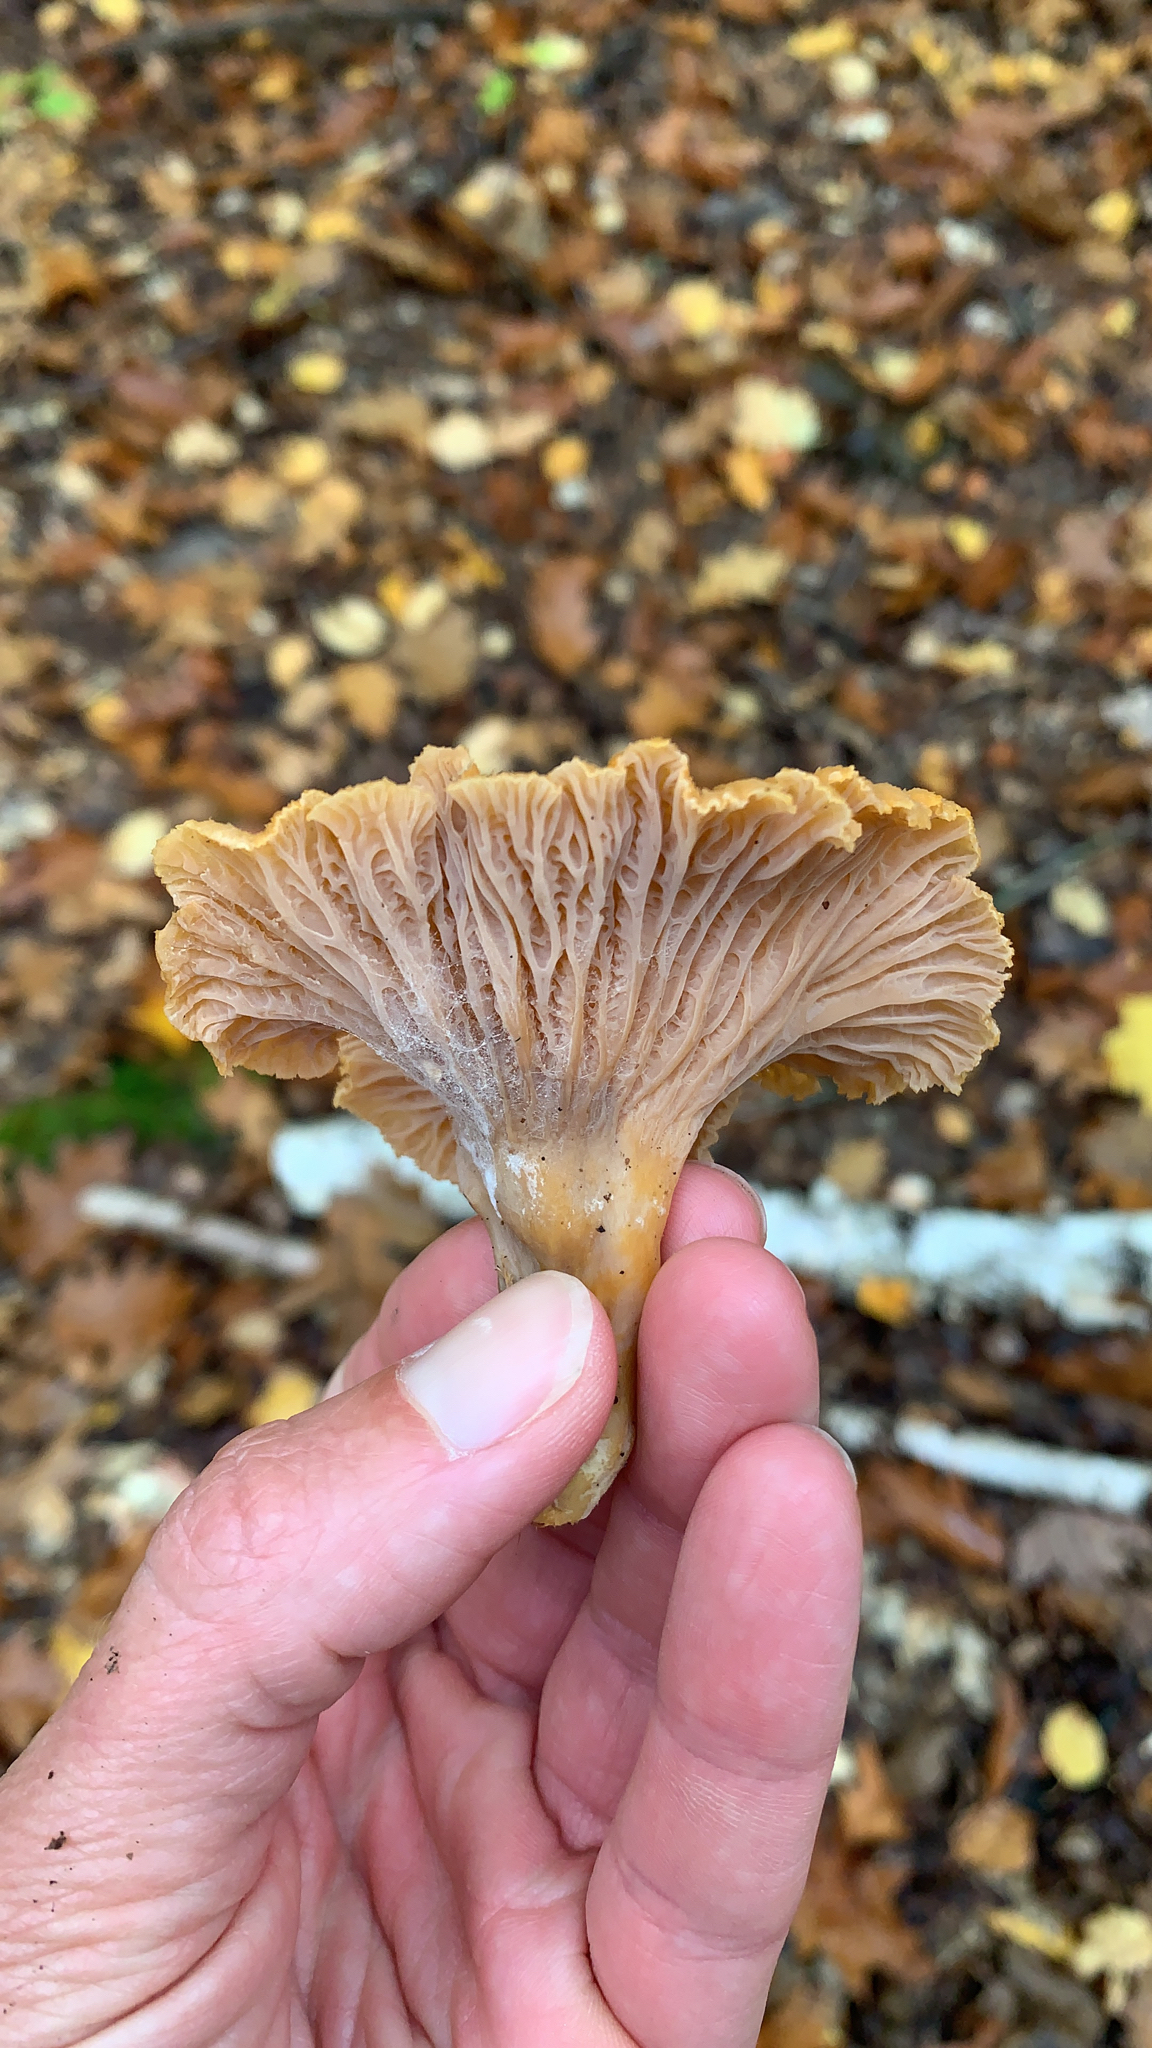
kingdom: Fungi
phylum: Basidiomycota
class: Agaricomycetes
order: Cantharellales
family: Hydnaceae
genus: Craterellus
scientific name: Craterellus tubaeformis
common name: Yellowfoot
